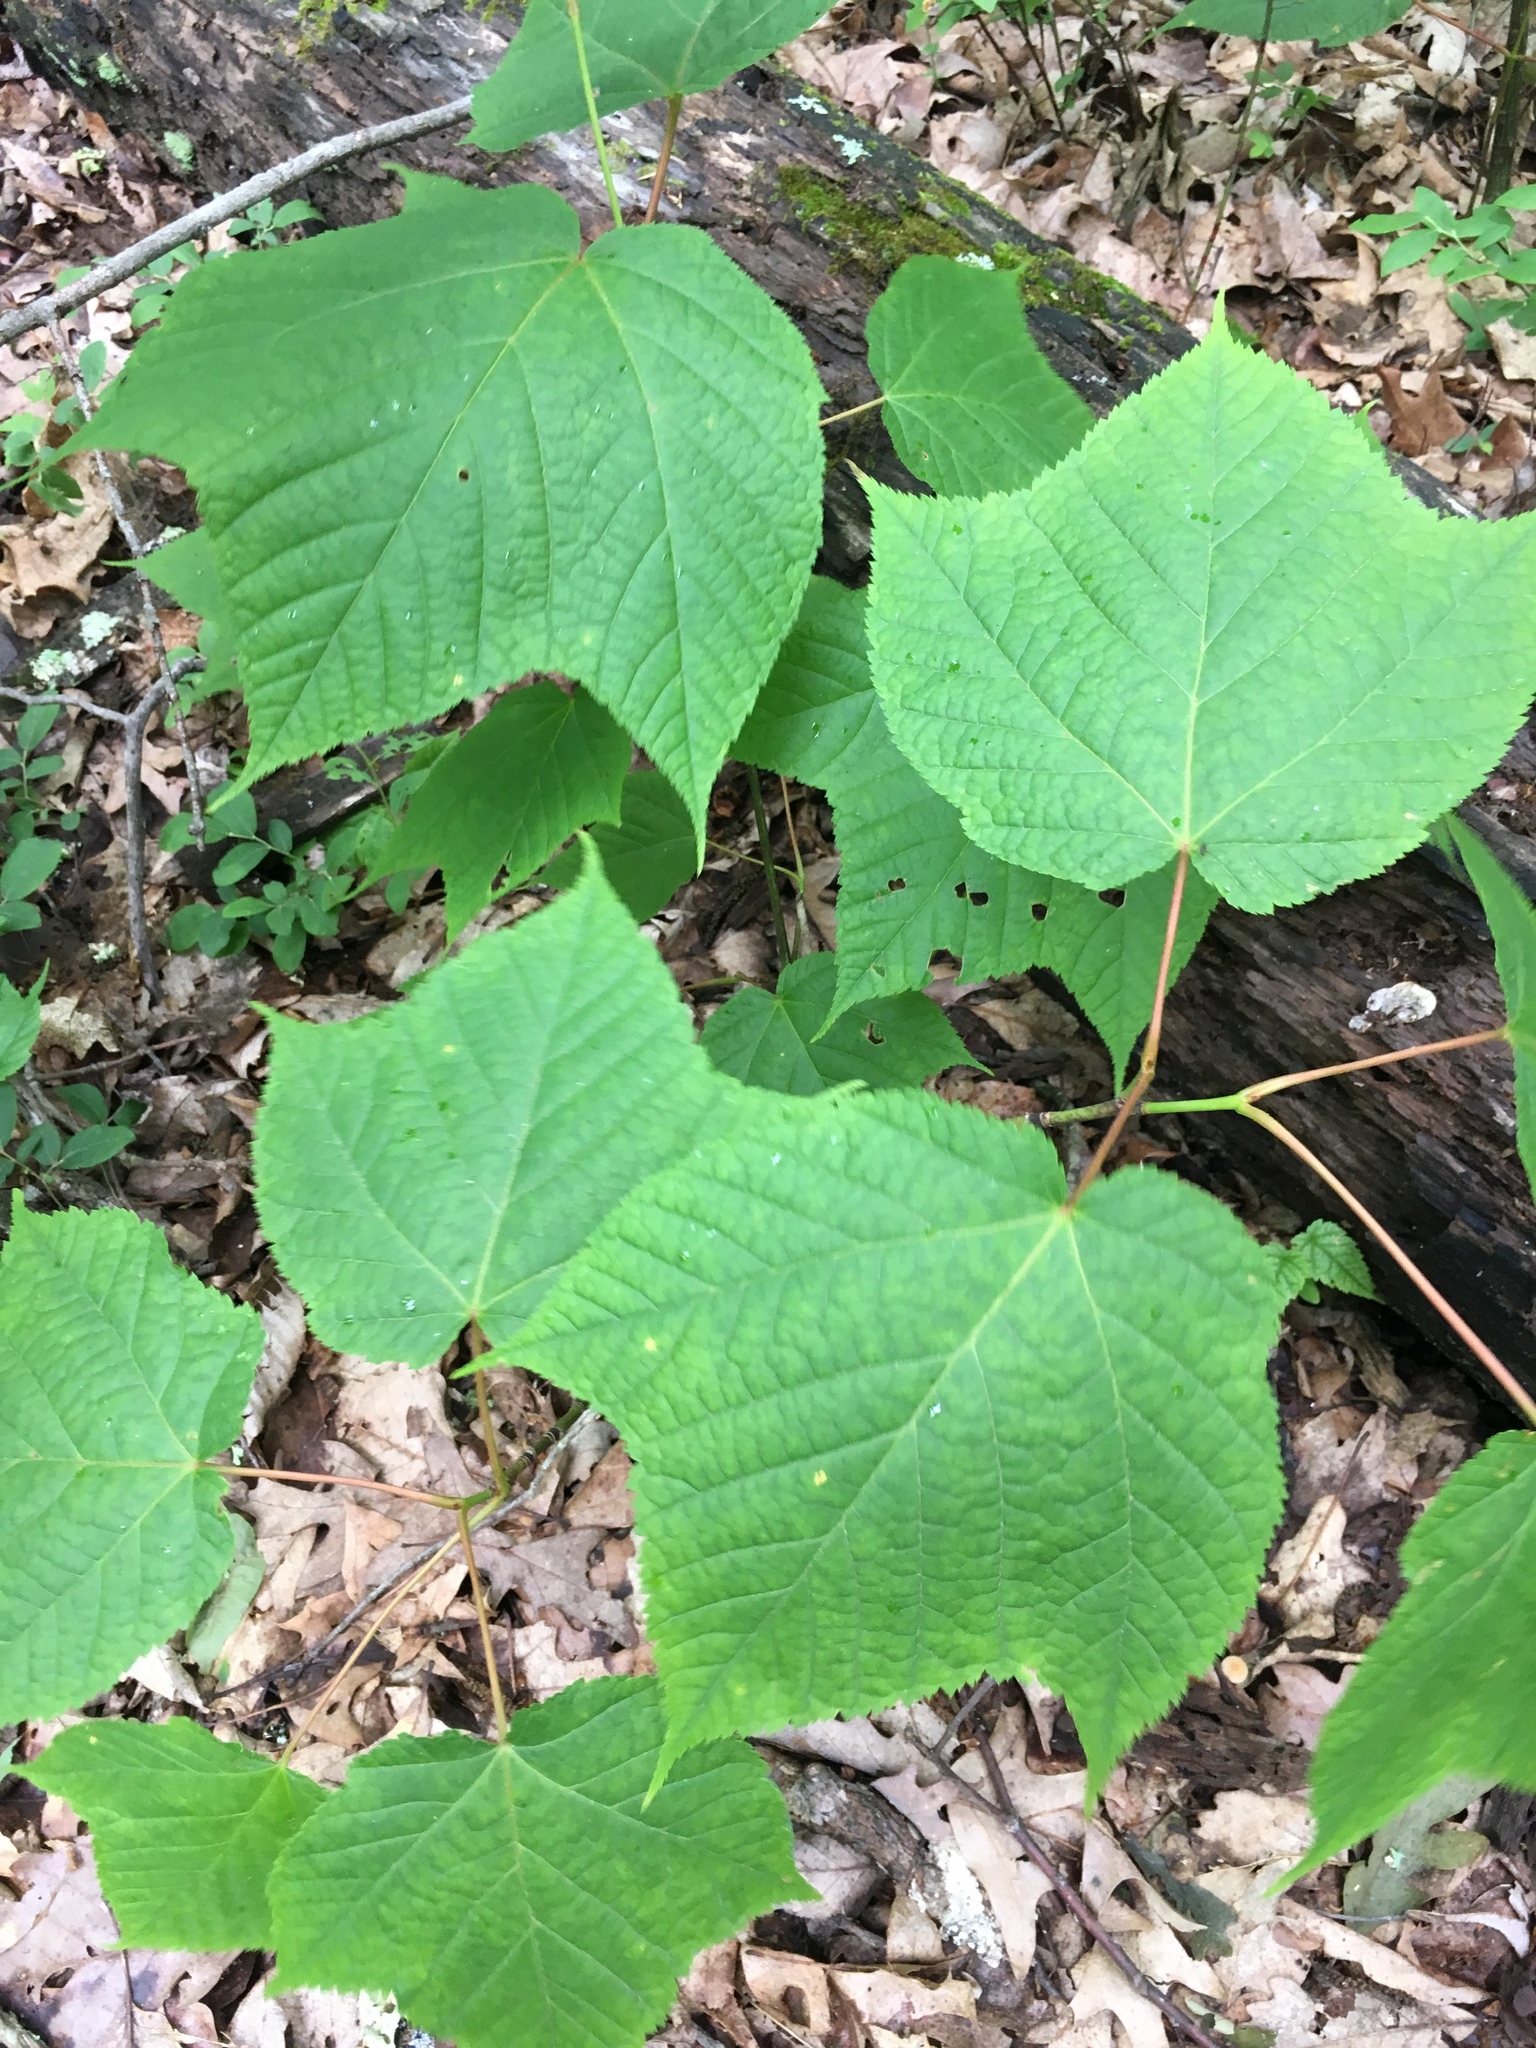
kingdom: Plantae
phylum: Tracheophyta
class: Magnoliopsida
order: Sapindales
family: Sapindaceae
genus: Acer
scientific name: Acer pensylvanicum
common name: Moosewood
